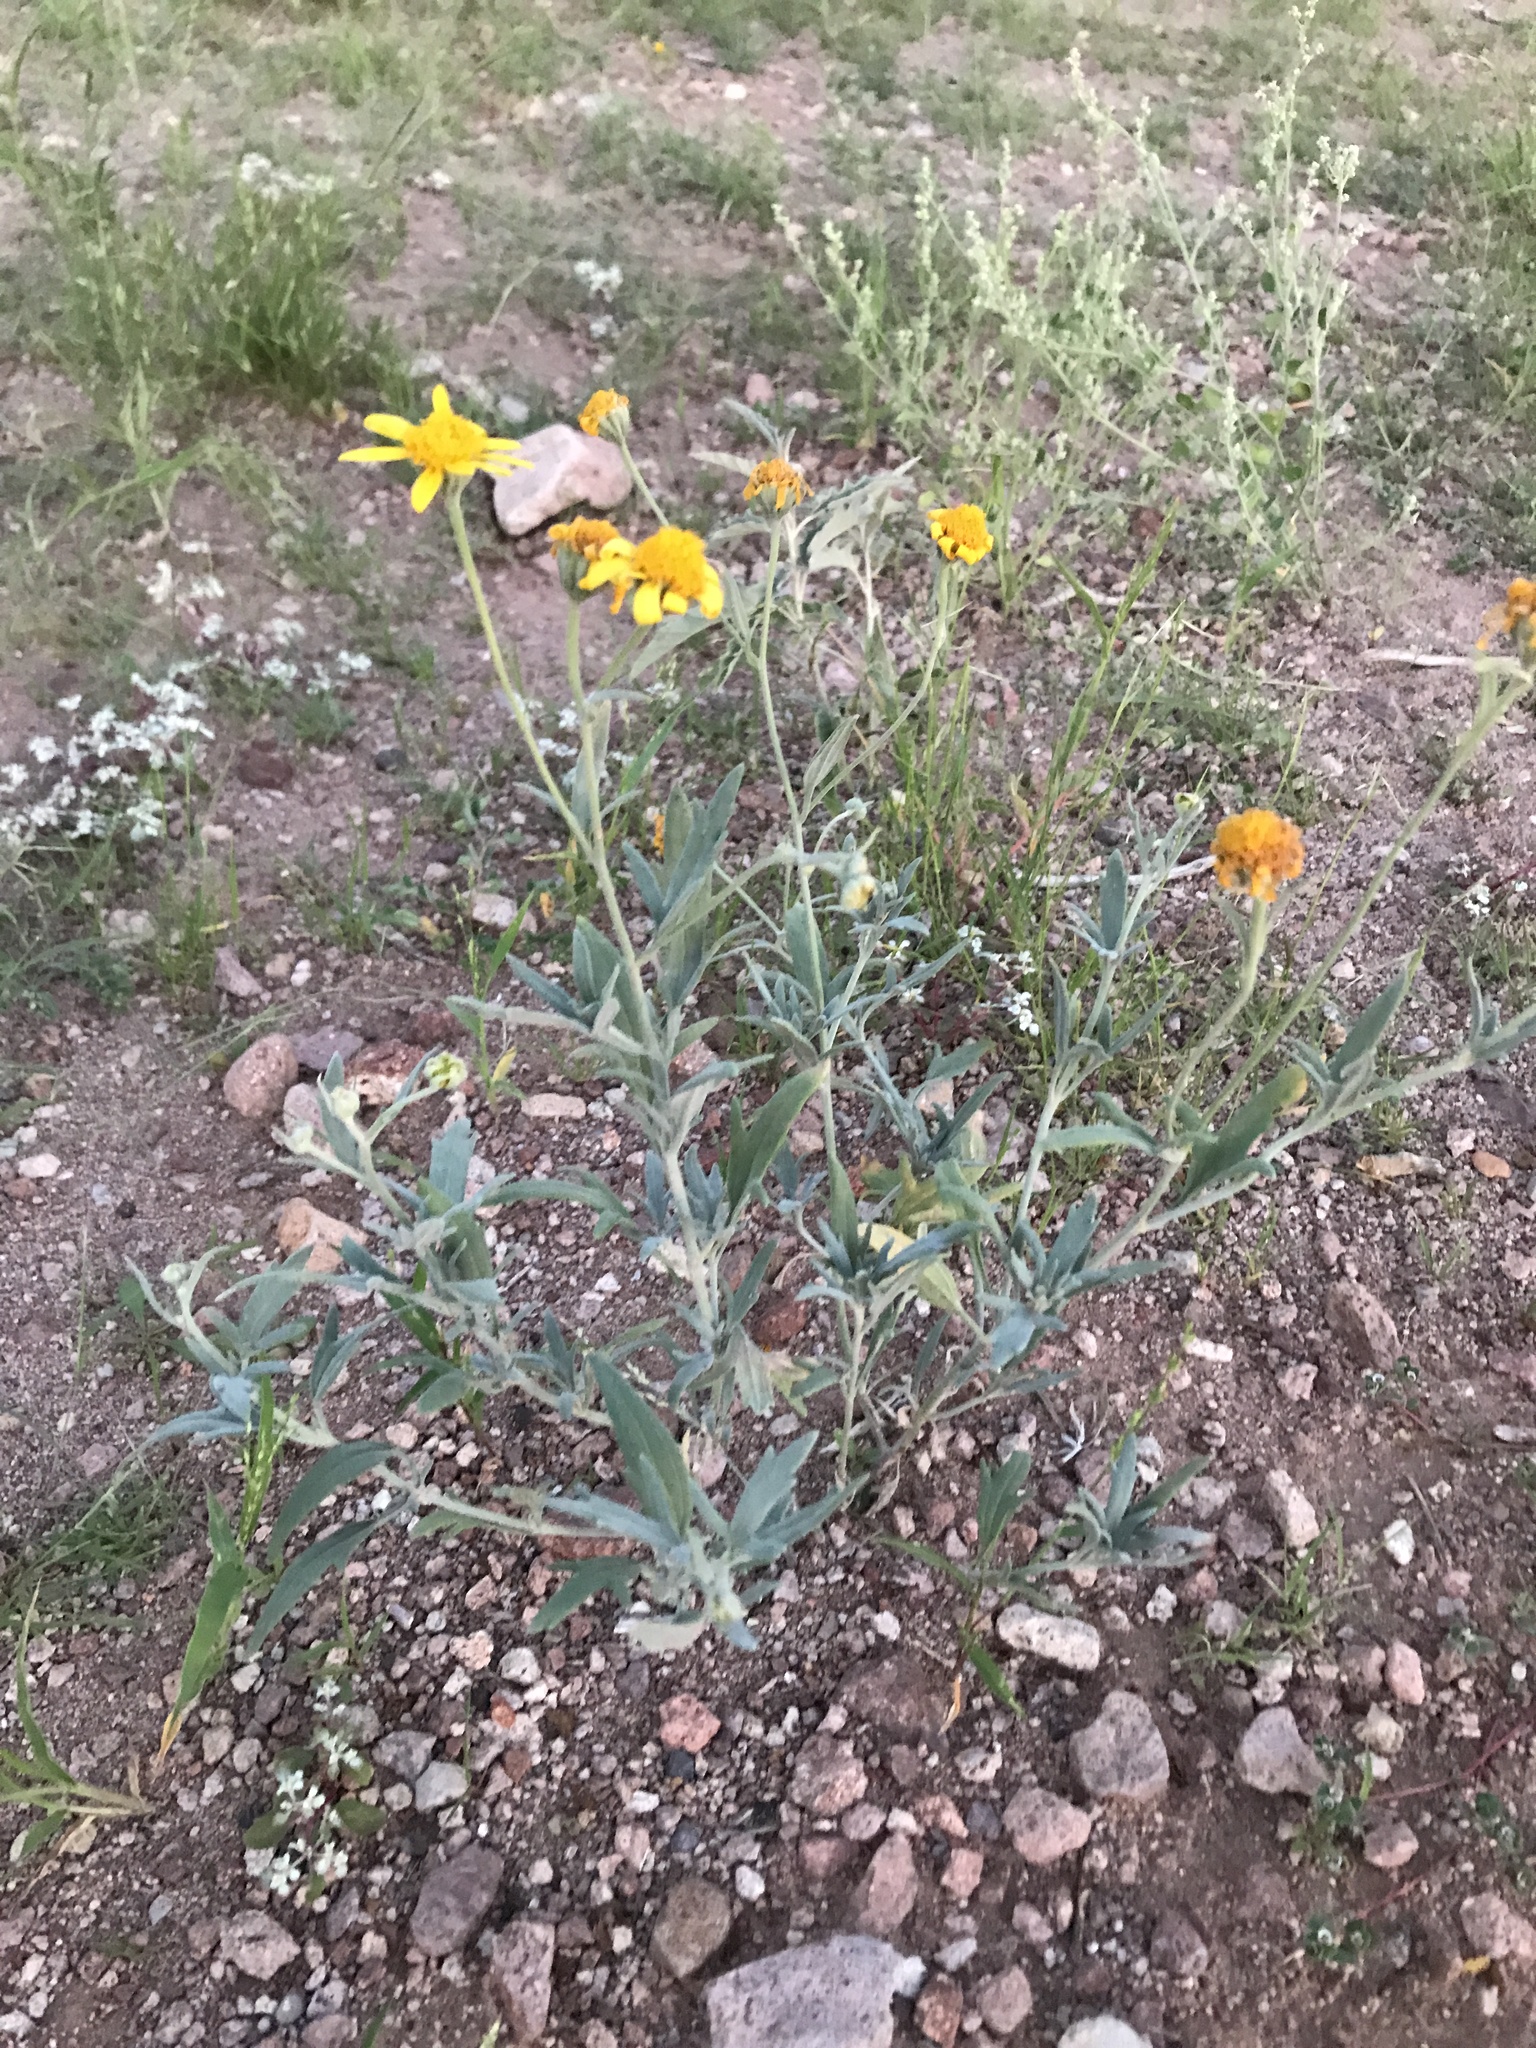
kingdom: Plantae
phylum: Tracheophyta
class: Magnoliopsida
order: Asterales
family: Asteraceae
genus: Picradeniopsis
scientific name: Picradeniopsis absinthifolia
